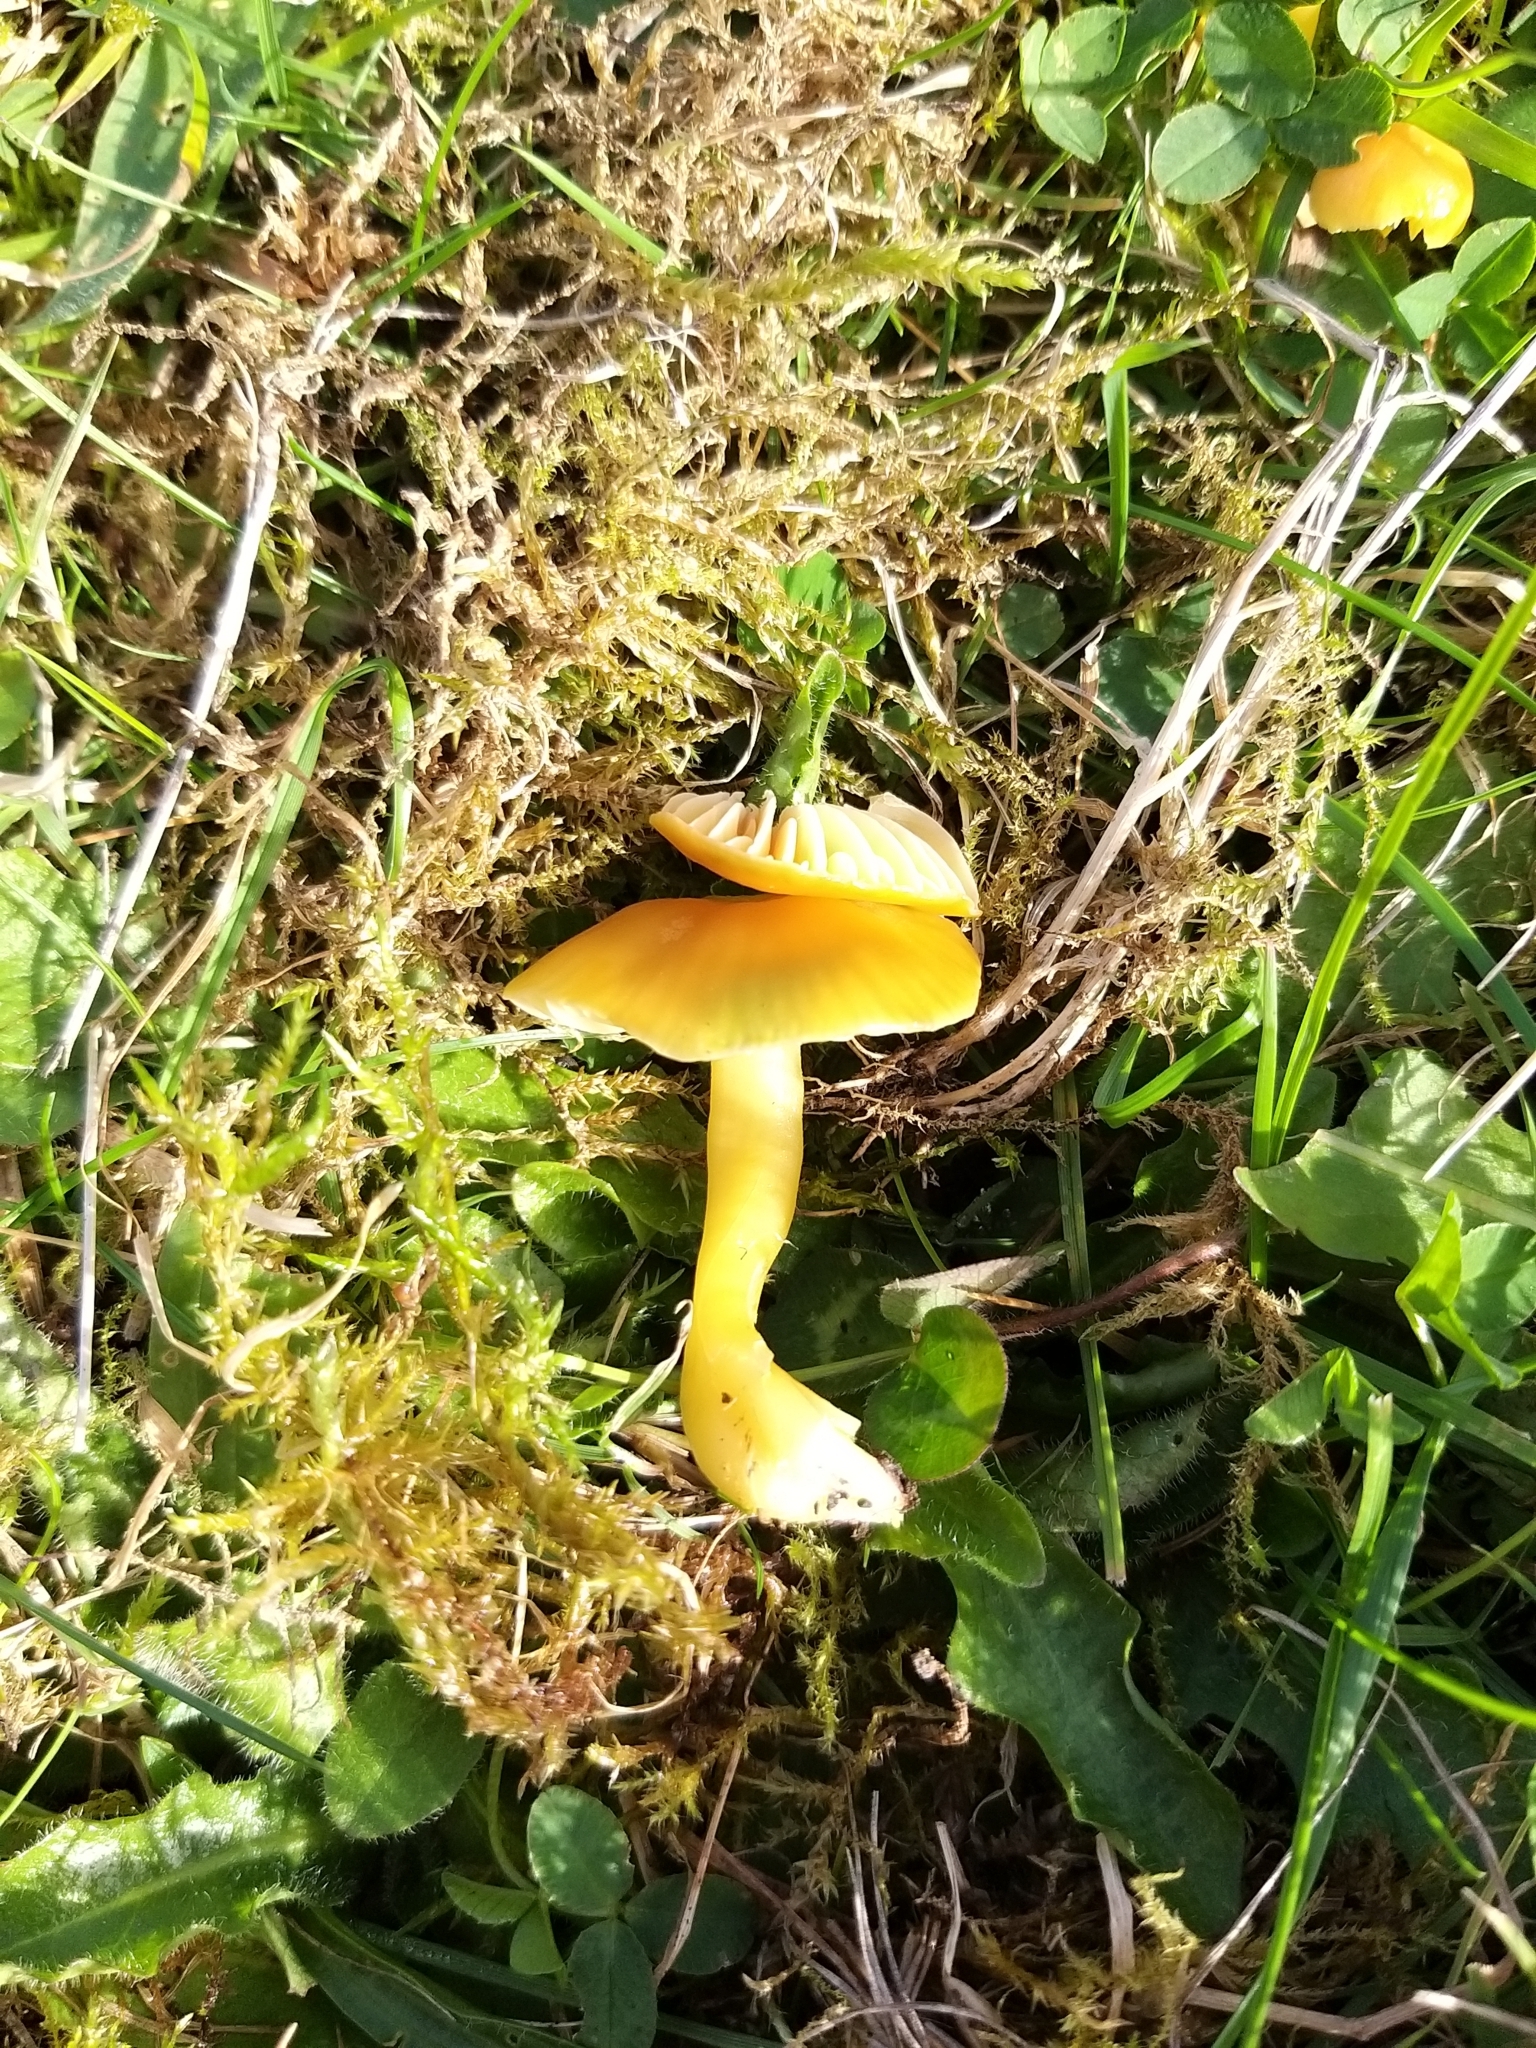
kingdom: Fungi
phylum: Basidiomycota
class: Agaricomycetes
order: Agaricales
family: Hygrophoraceae
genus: Gliophorus
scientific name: Gliophorus psittacinus
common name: Parrot wax-cap
